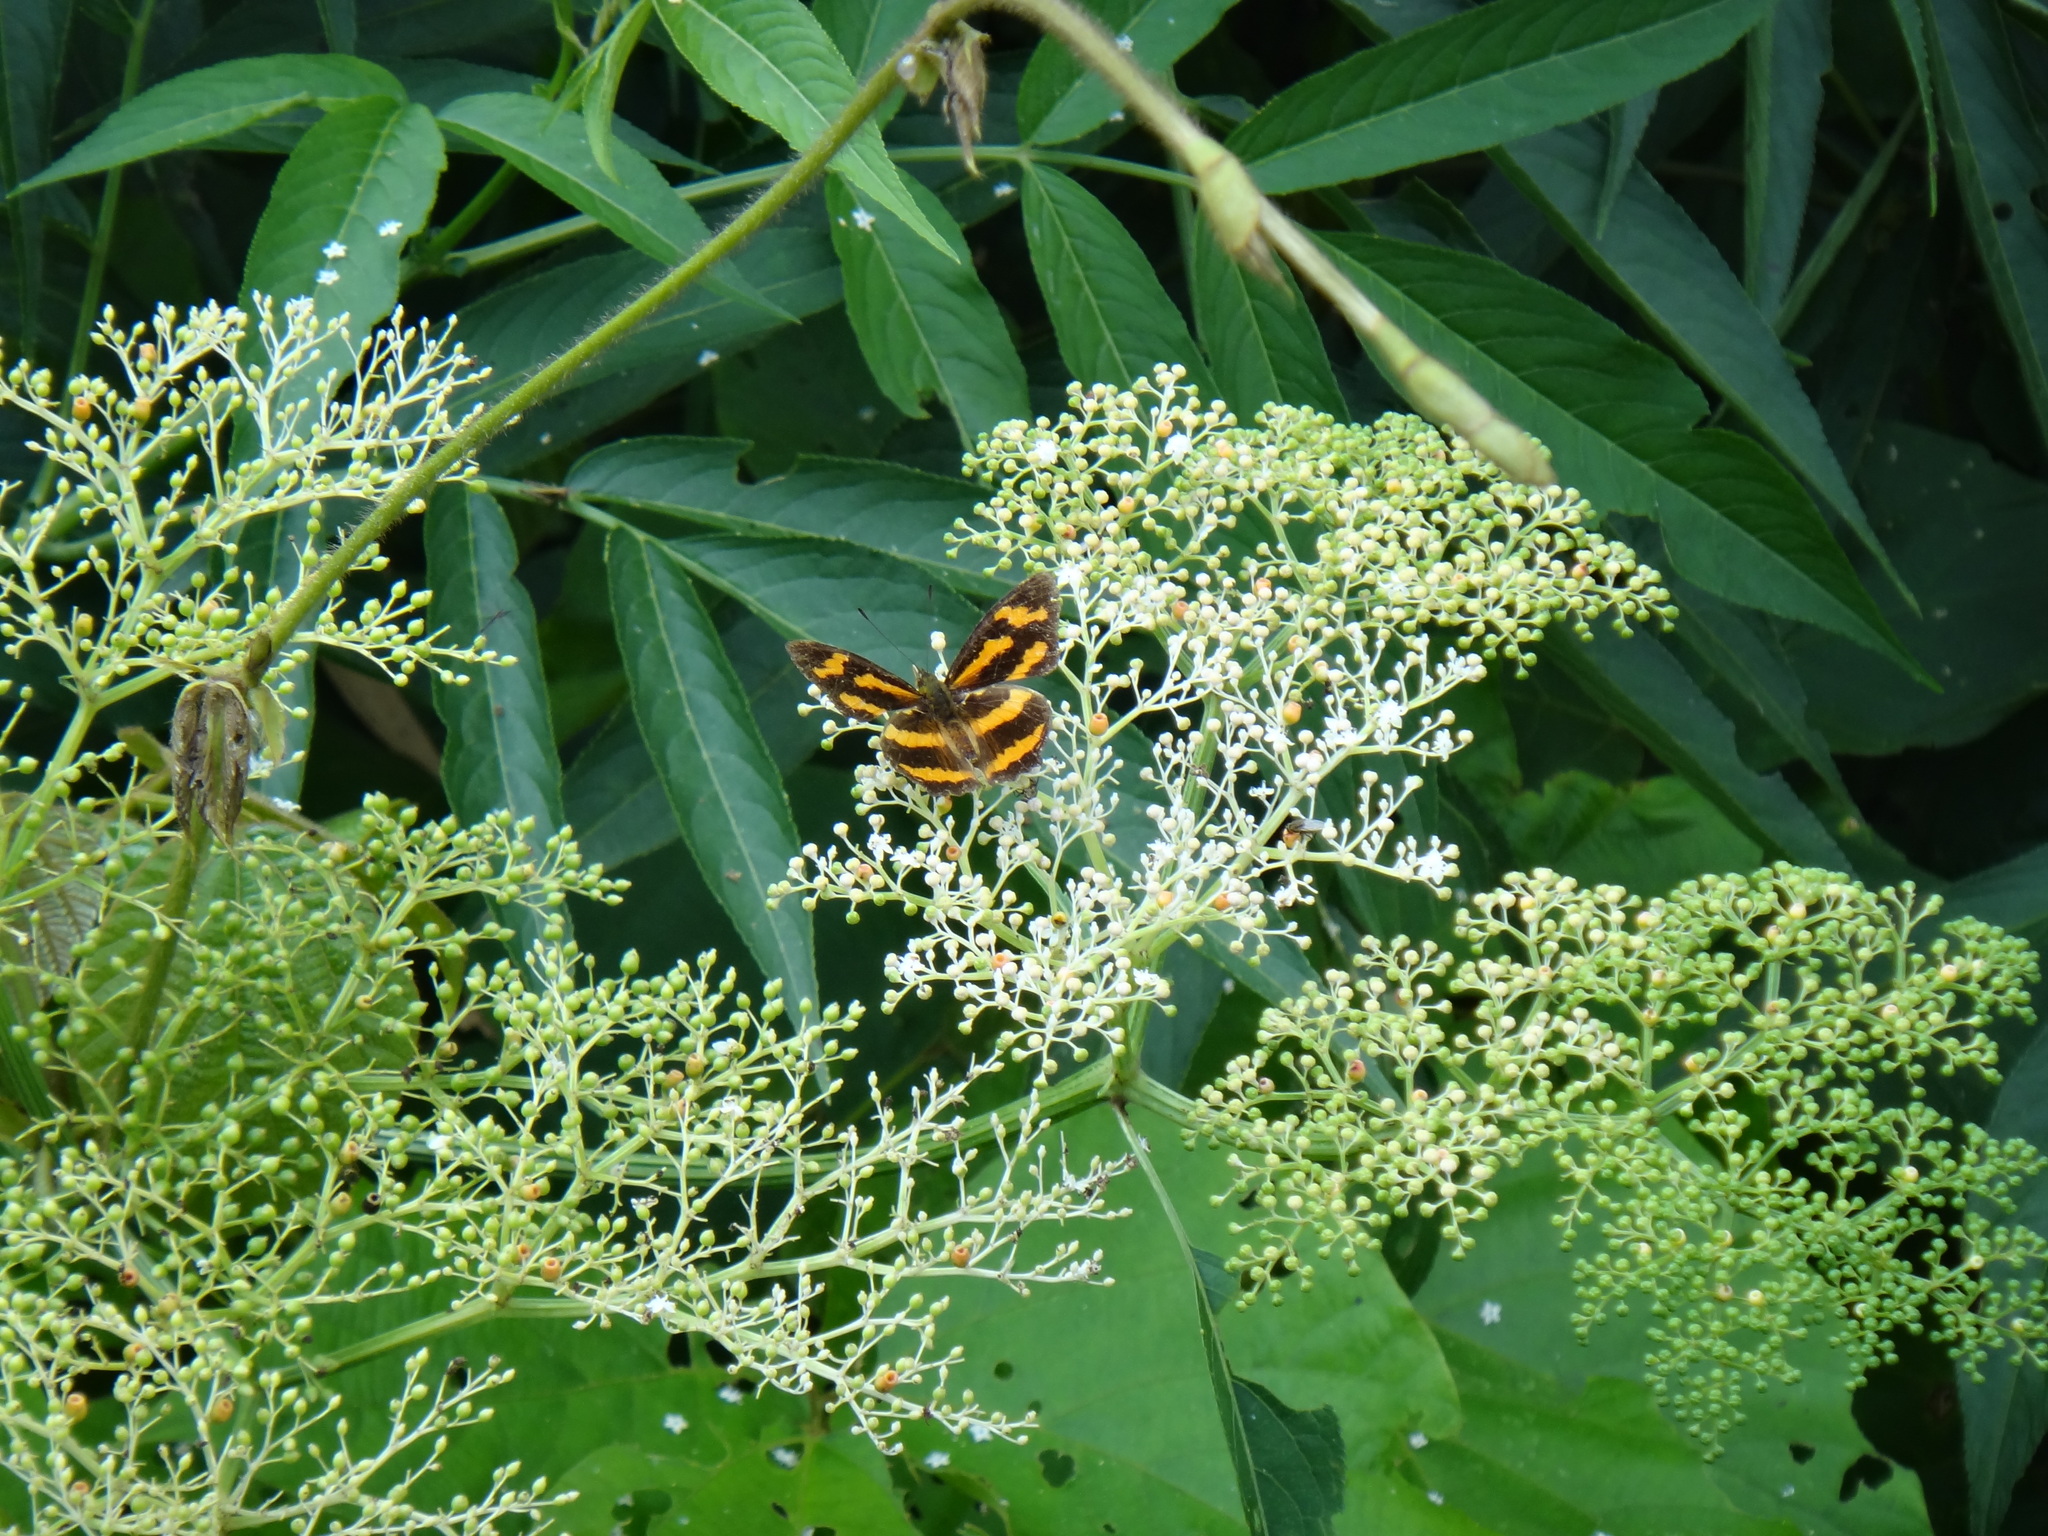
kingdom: Animalia
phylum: Arthropoda
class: Insecta
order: Lepidoptera
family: Nymphalidae
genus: Symbrenthia
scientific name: Symbrenthia hypselis
